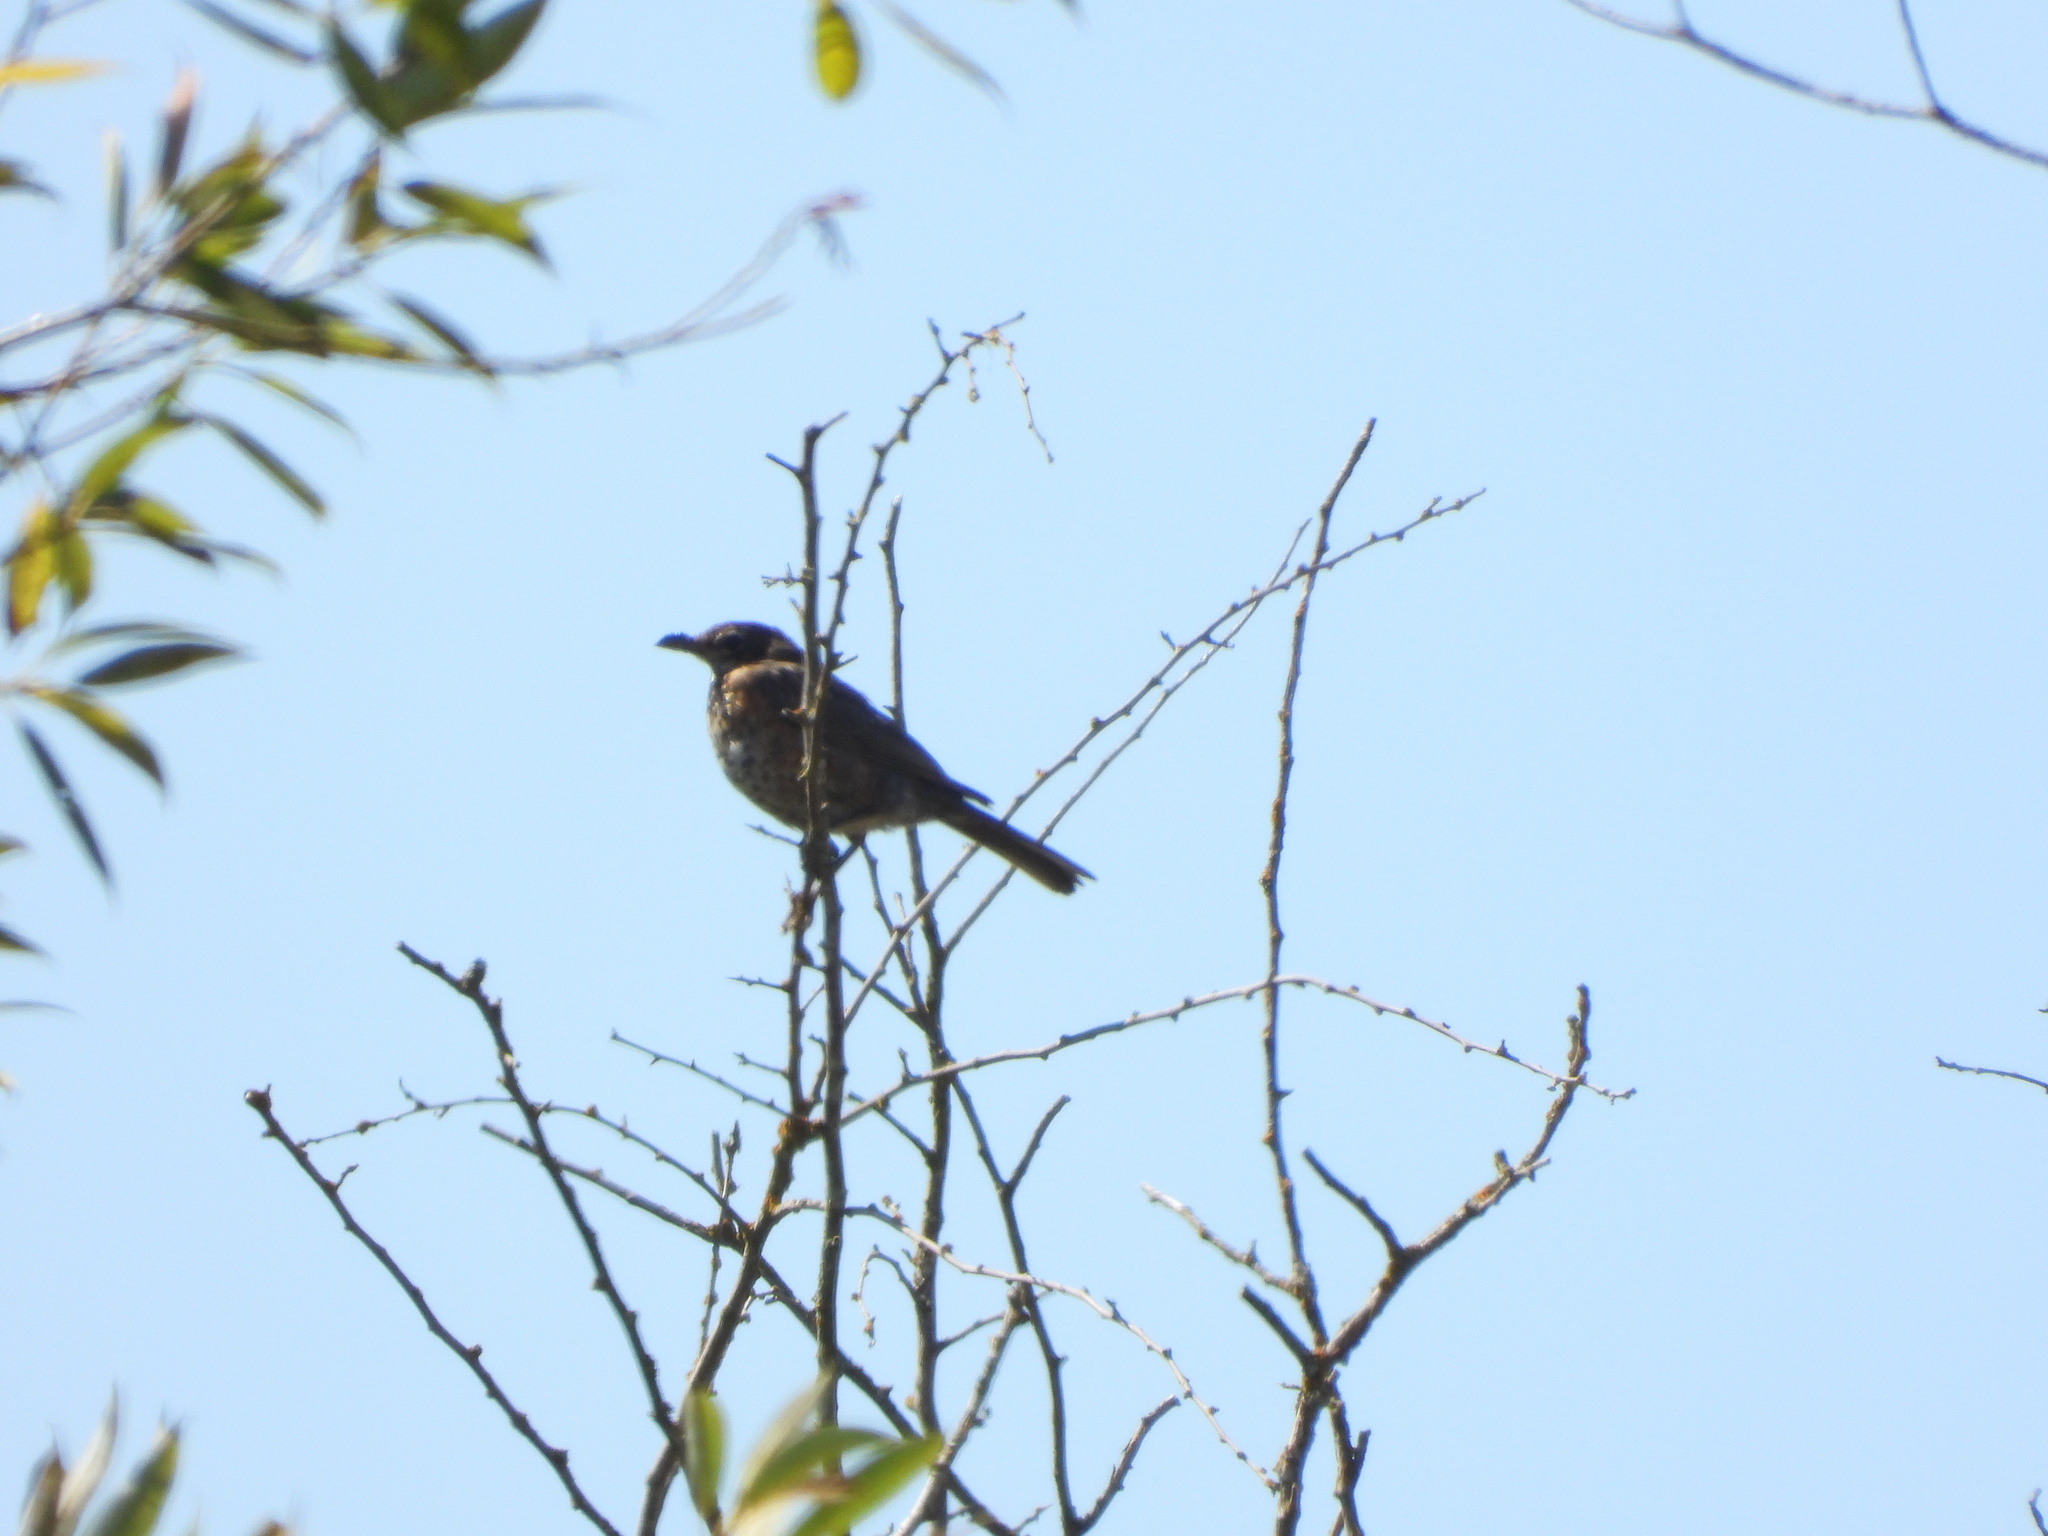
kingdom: Animalia
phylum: Chordata
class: Aves
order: Passeriformes
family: Turdidae
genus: Turdus
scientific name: Turdus migratorius
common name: American robin
